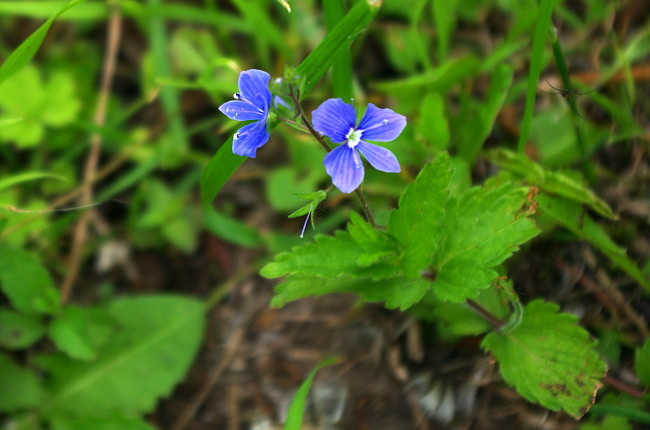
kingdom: Plantae
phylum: Tracheophyta
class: Magnoliopsida
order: Lamiales
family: Plantaginaceae
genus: Veronica
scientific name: Veronica chamaedrys
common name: Germander speedwell
